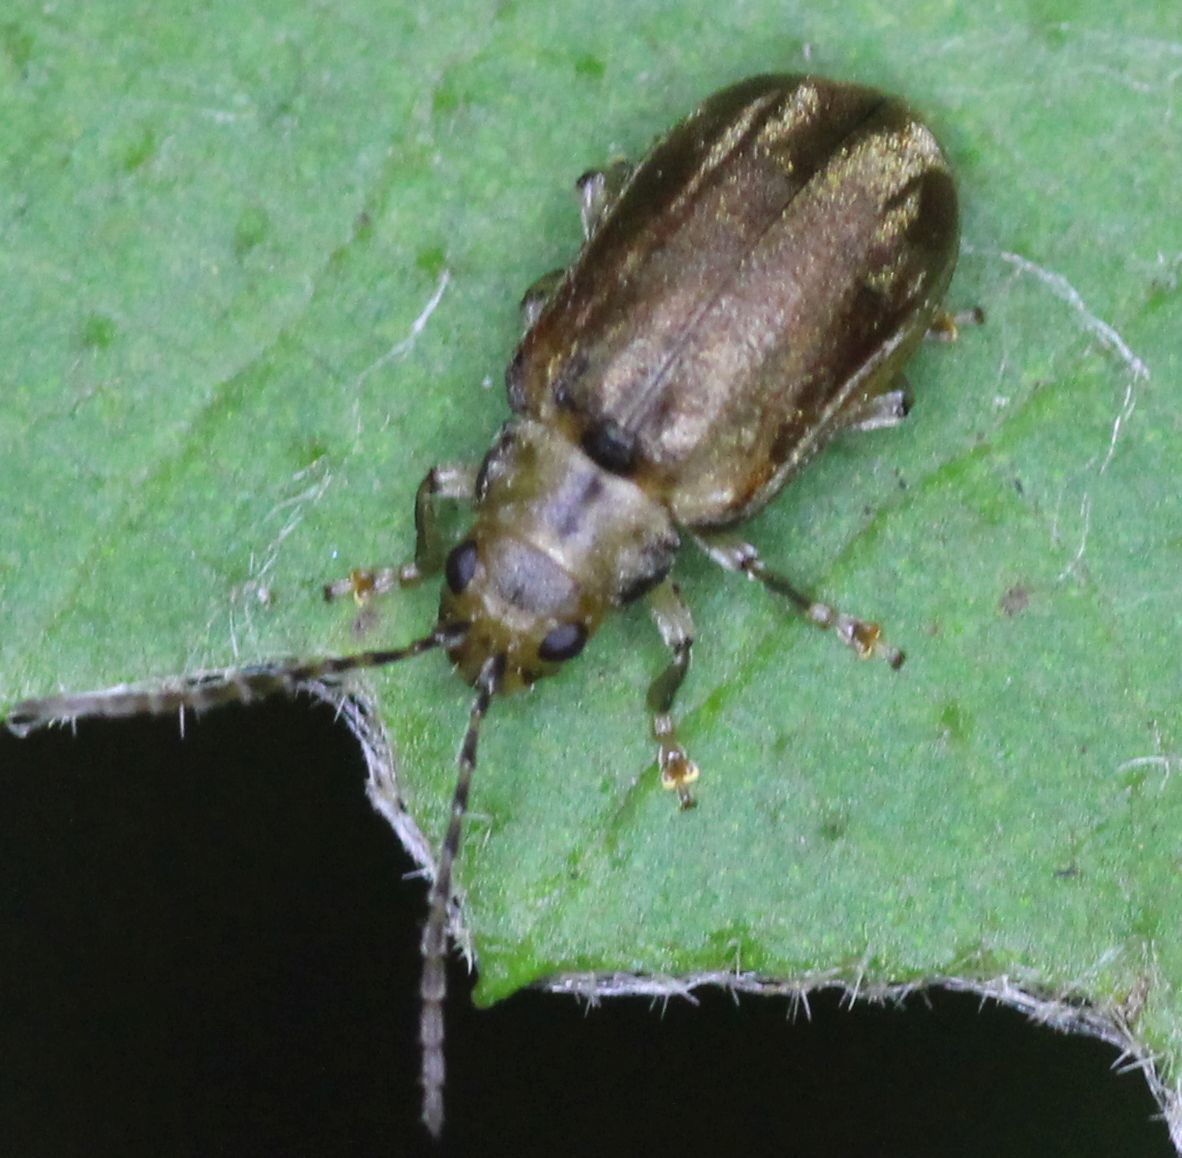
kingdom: Animalia
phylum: Arthropoda
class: Insecta
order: Coleoptera
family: Chrysomelidae
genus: Pyrrhalta
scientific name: Pyrrhalta viburni
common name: Guelder-rose leaf beetle
